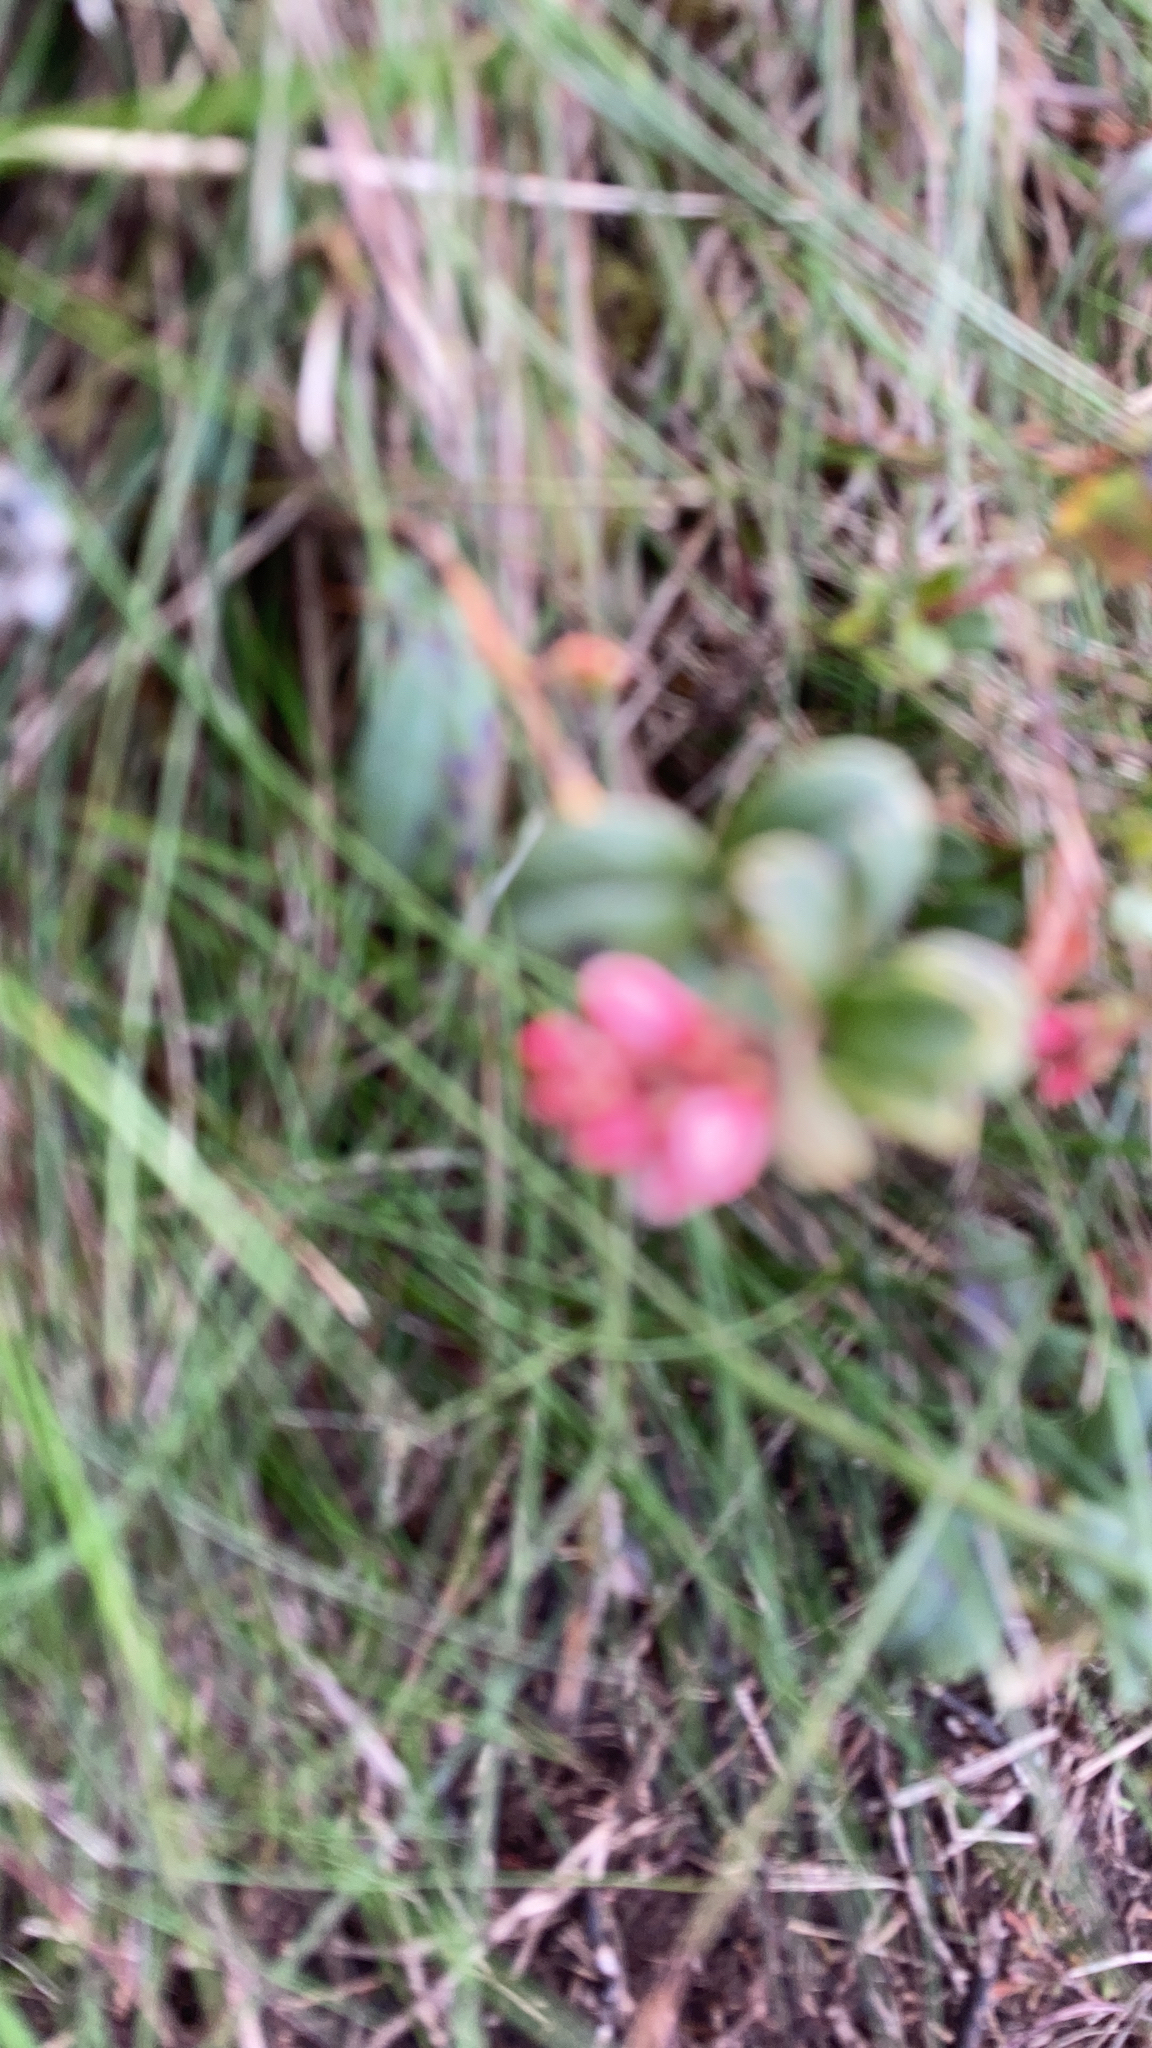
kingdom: Plantae
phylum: Tracheophyta
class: Magnoliopsida
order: Ericales
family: Ericaceae
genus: Vaccinium
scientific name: Vaccinium vitis-idaea
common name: Cowberry
